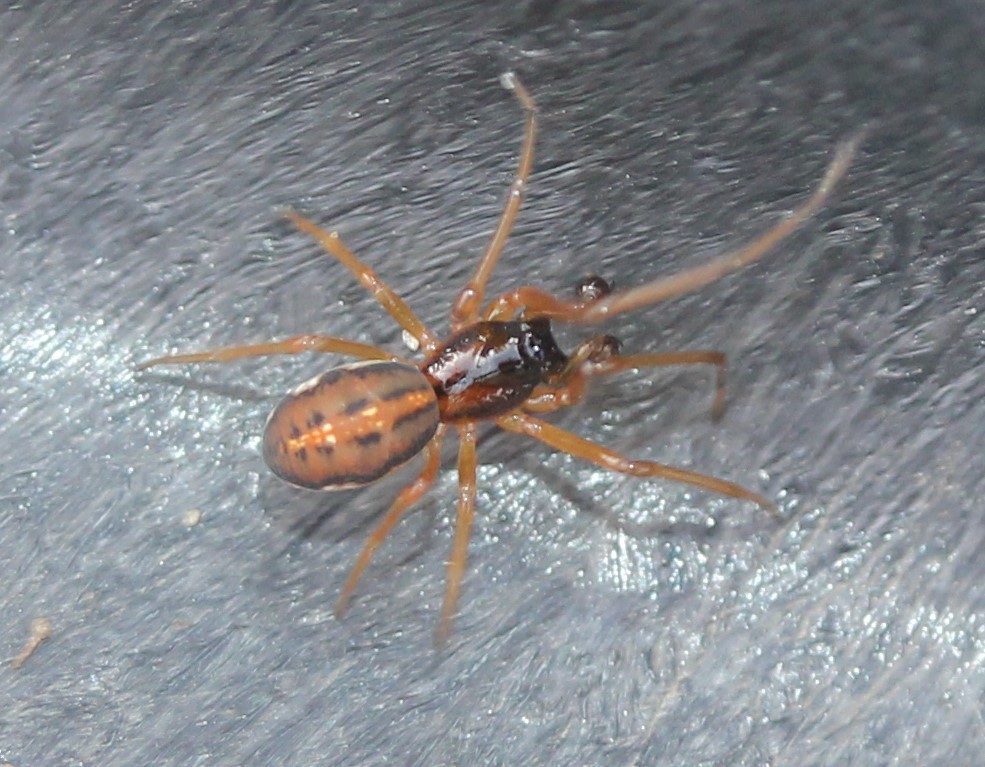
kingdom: Animalia
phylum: Arthropoda
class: Arachnida
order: Araneae
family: Tetragnathidae
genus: Pachygnatha
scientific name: Pachygnatha autumnalis
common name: Big-eyed thick-jawed spider
